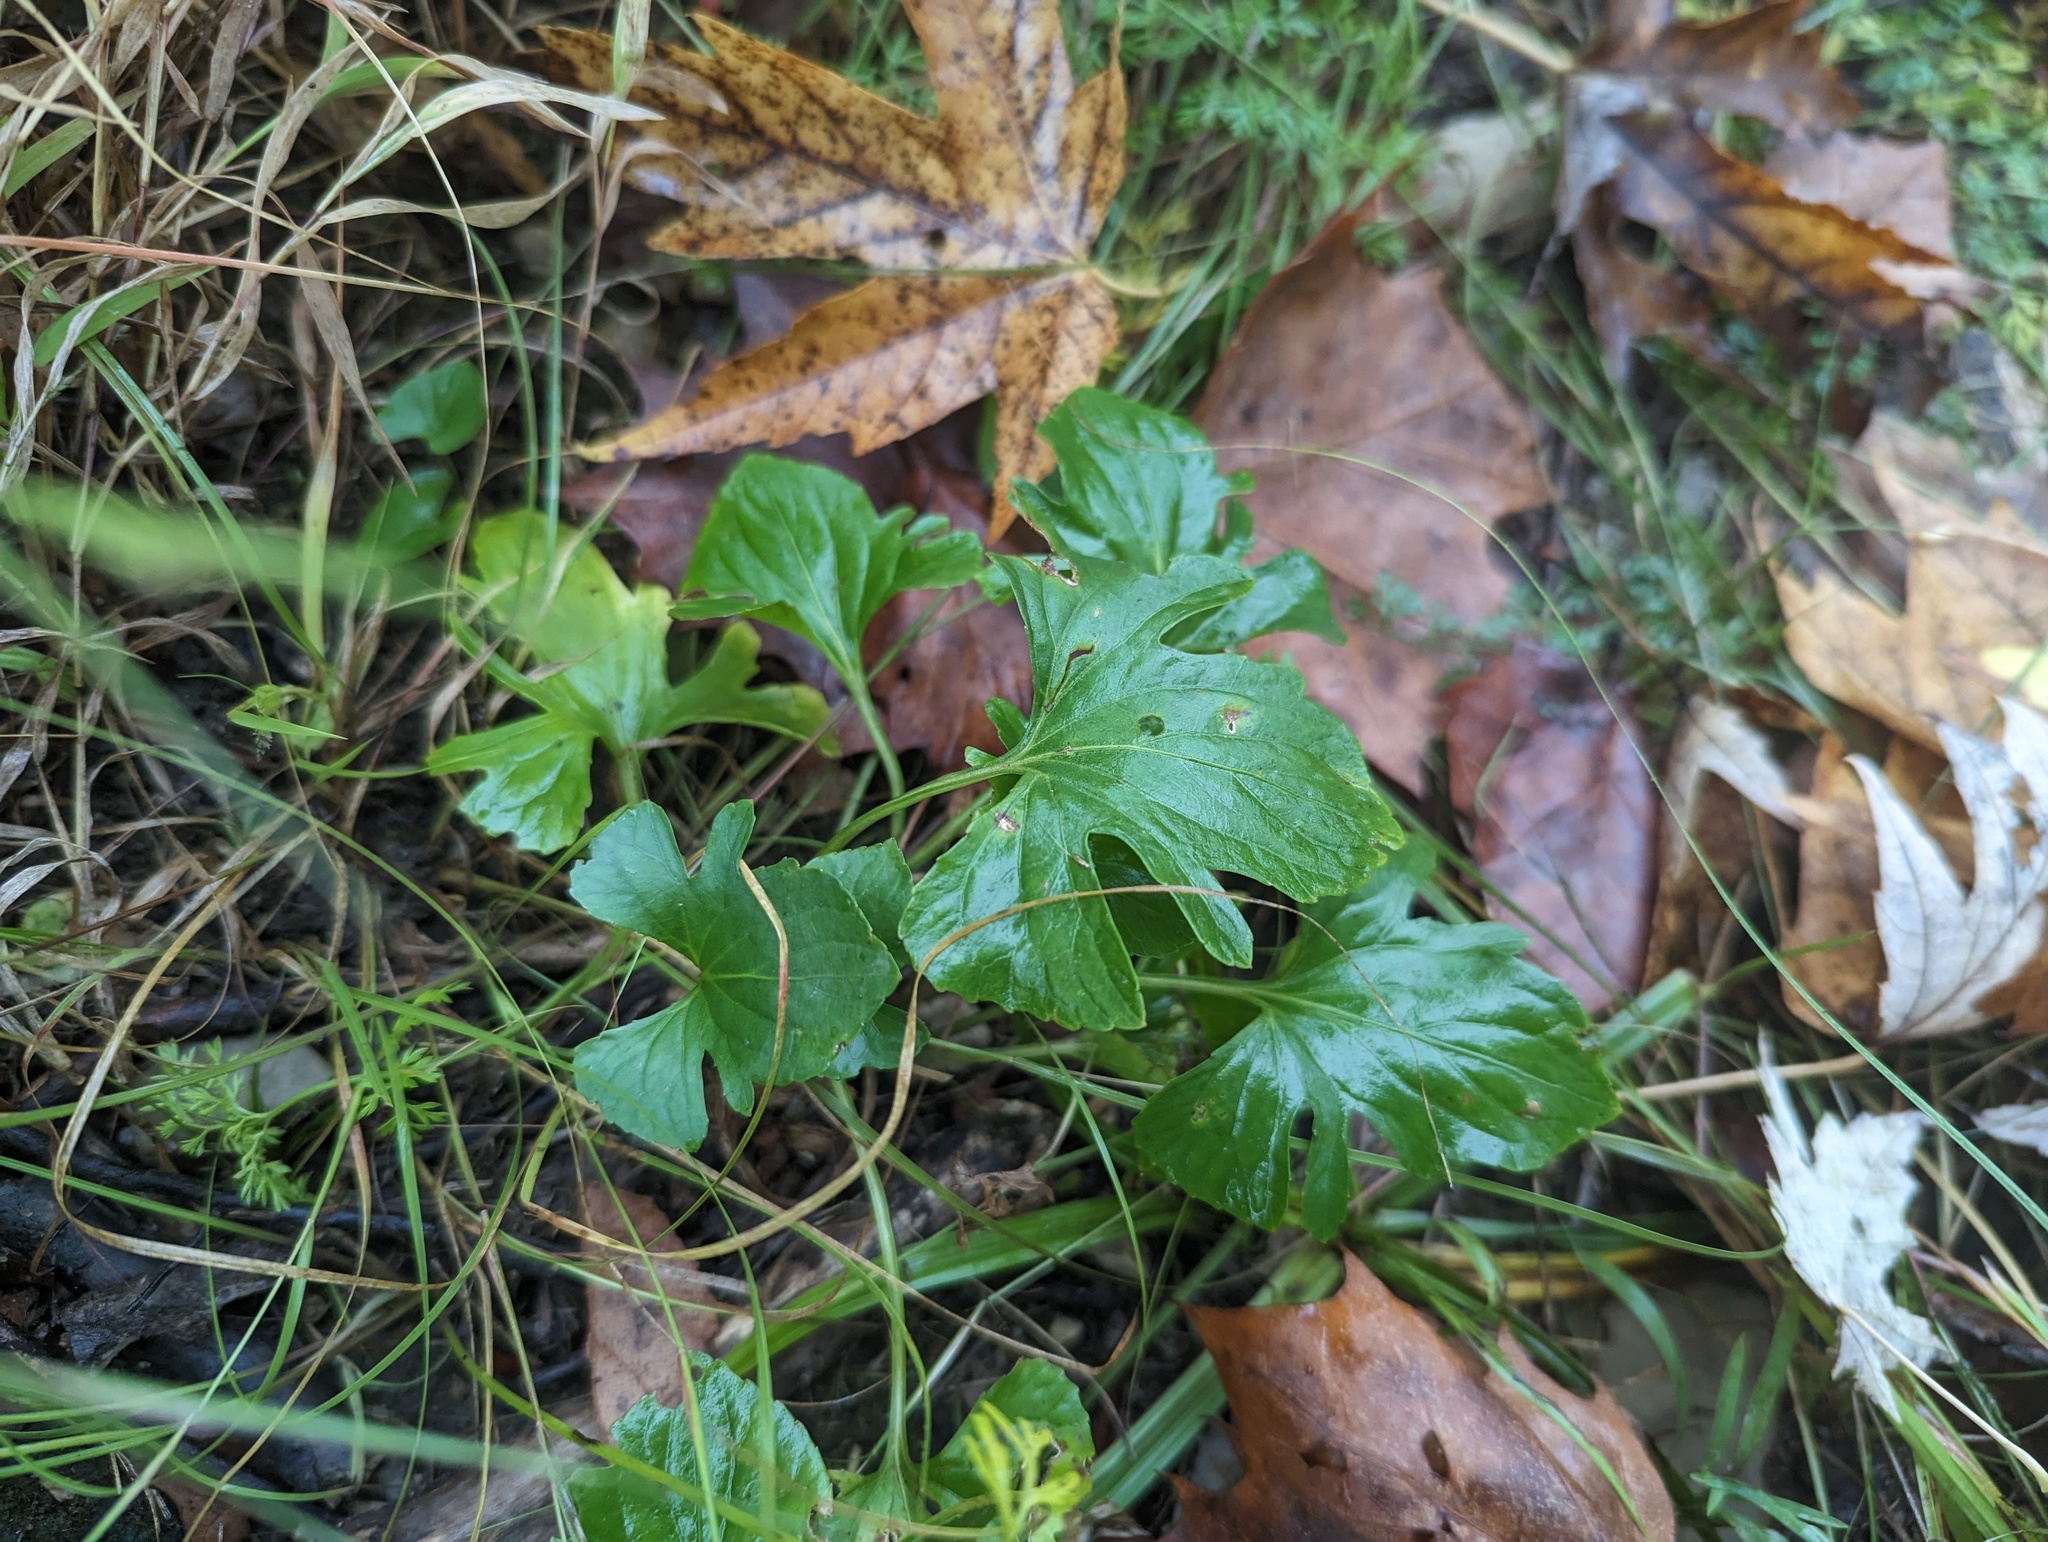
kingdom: Plantae
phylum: Tracheophyta
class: Magnoliopsida
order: Malpighiales
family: Violaceae
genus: Viola
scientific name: Viola viarum
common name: Twoflower violet
